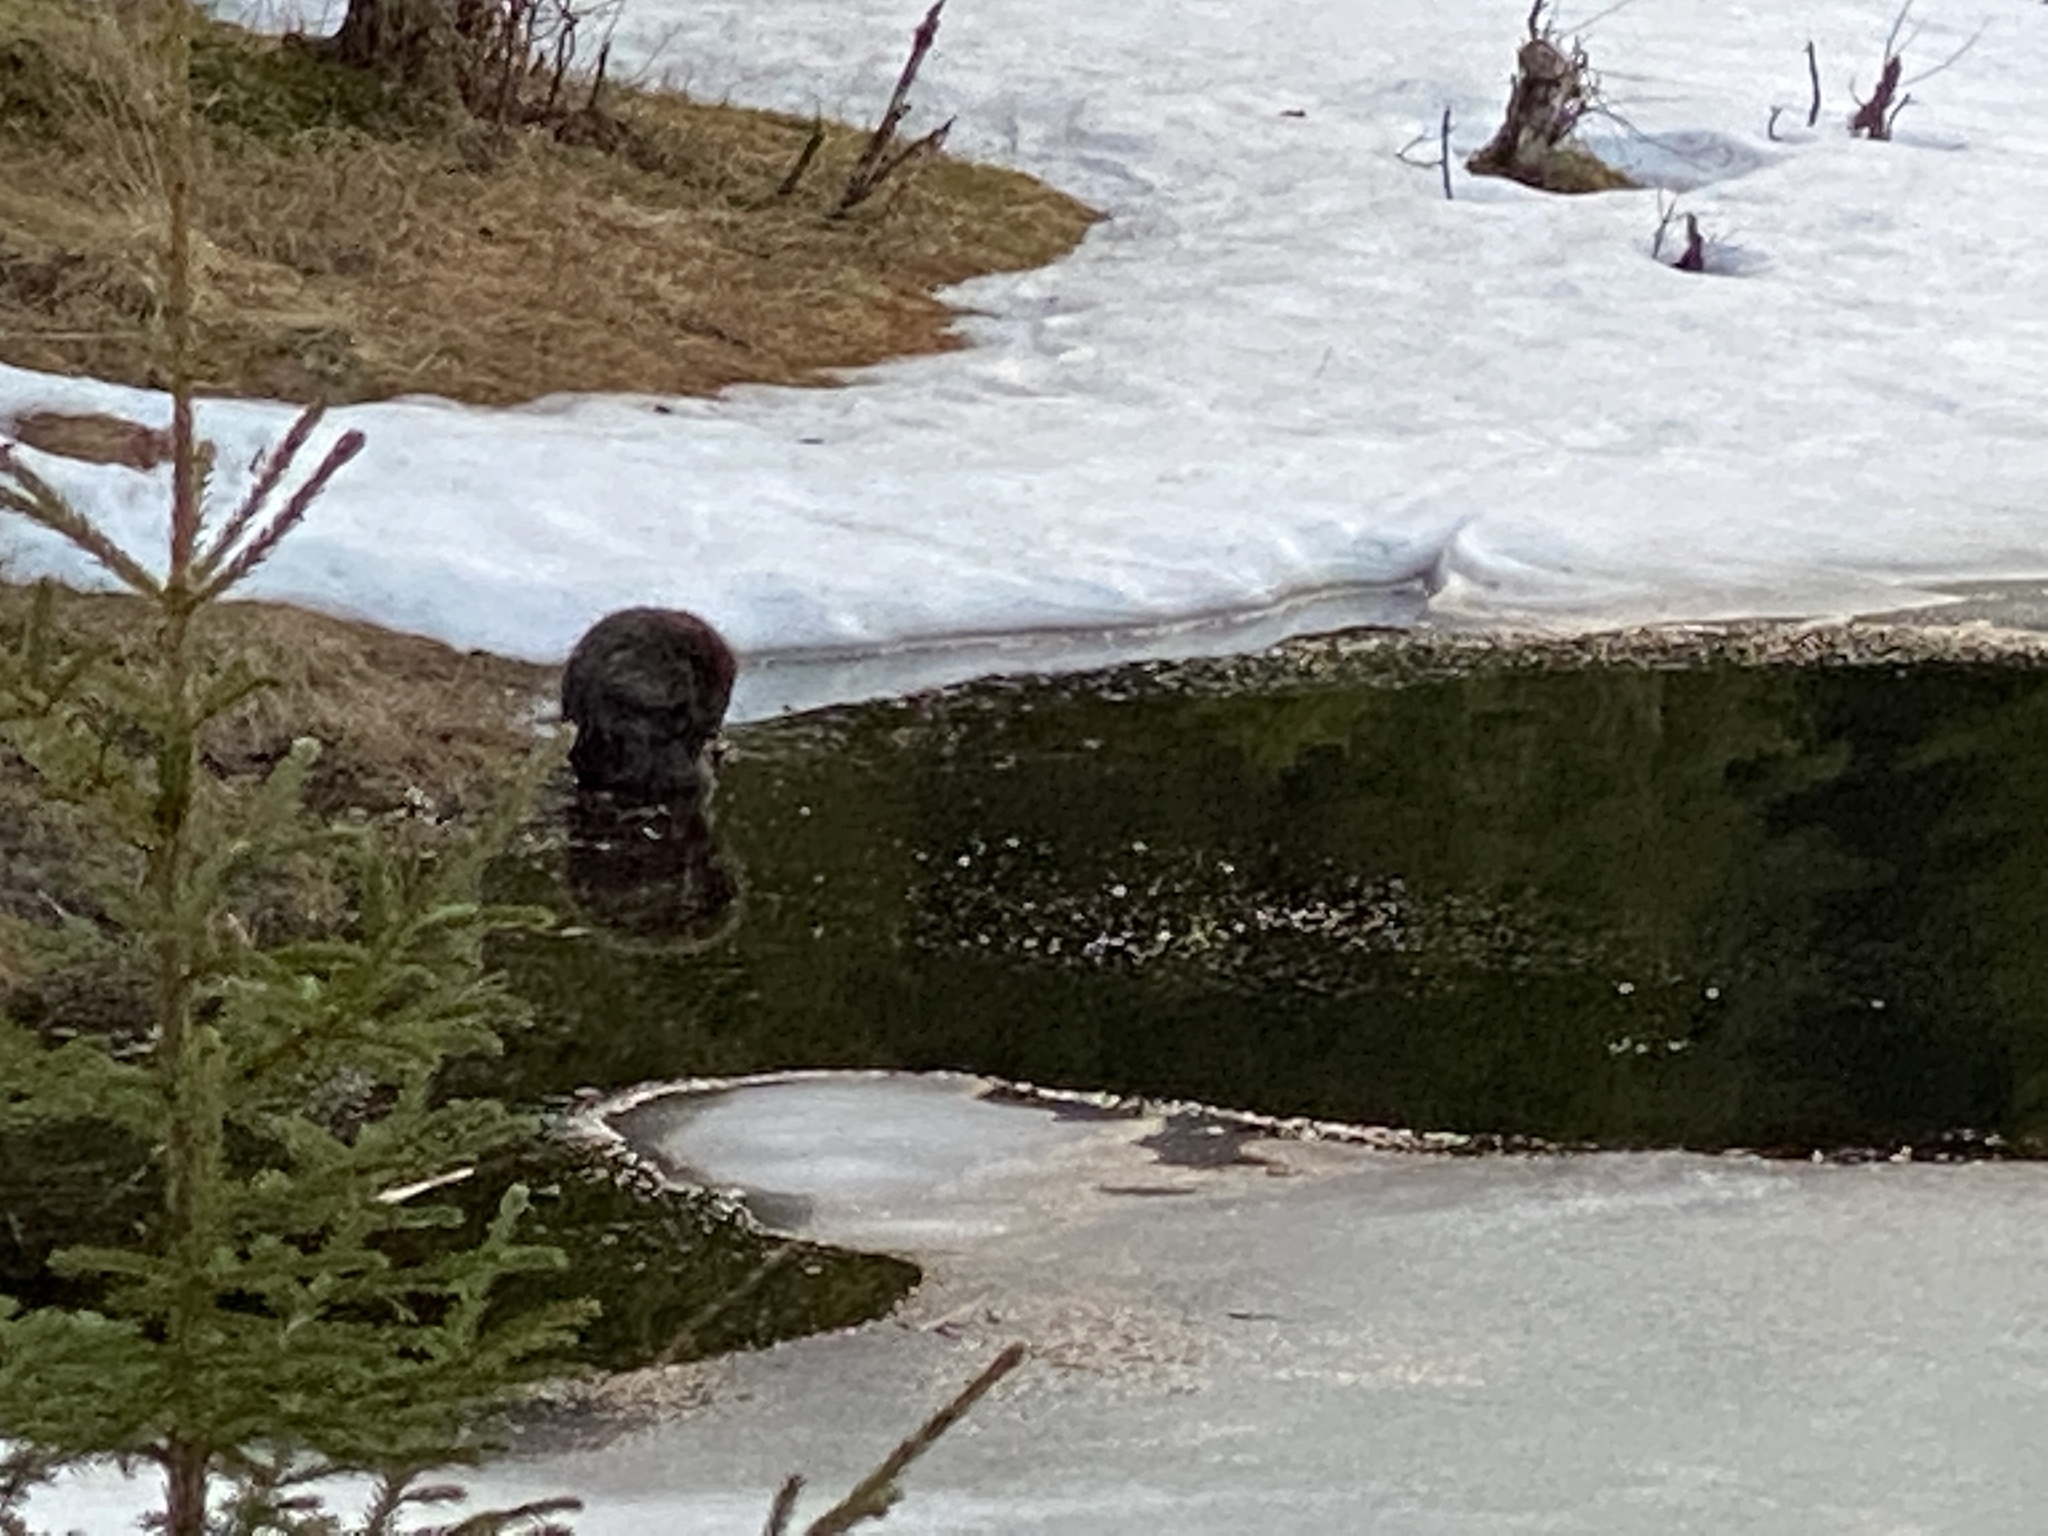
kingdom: Animalia
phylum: Chordata
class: Mammalia
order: Rodentia
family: Castoridae
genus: Castor
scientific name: Castor fiber
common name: Eurasian beaver
